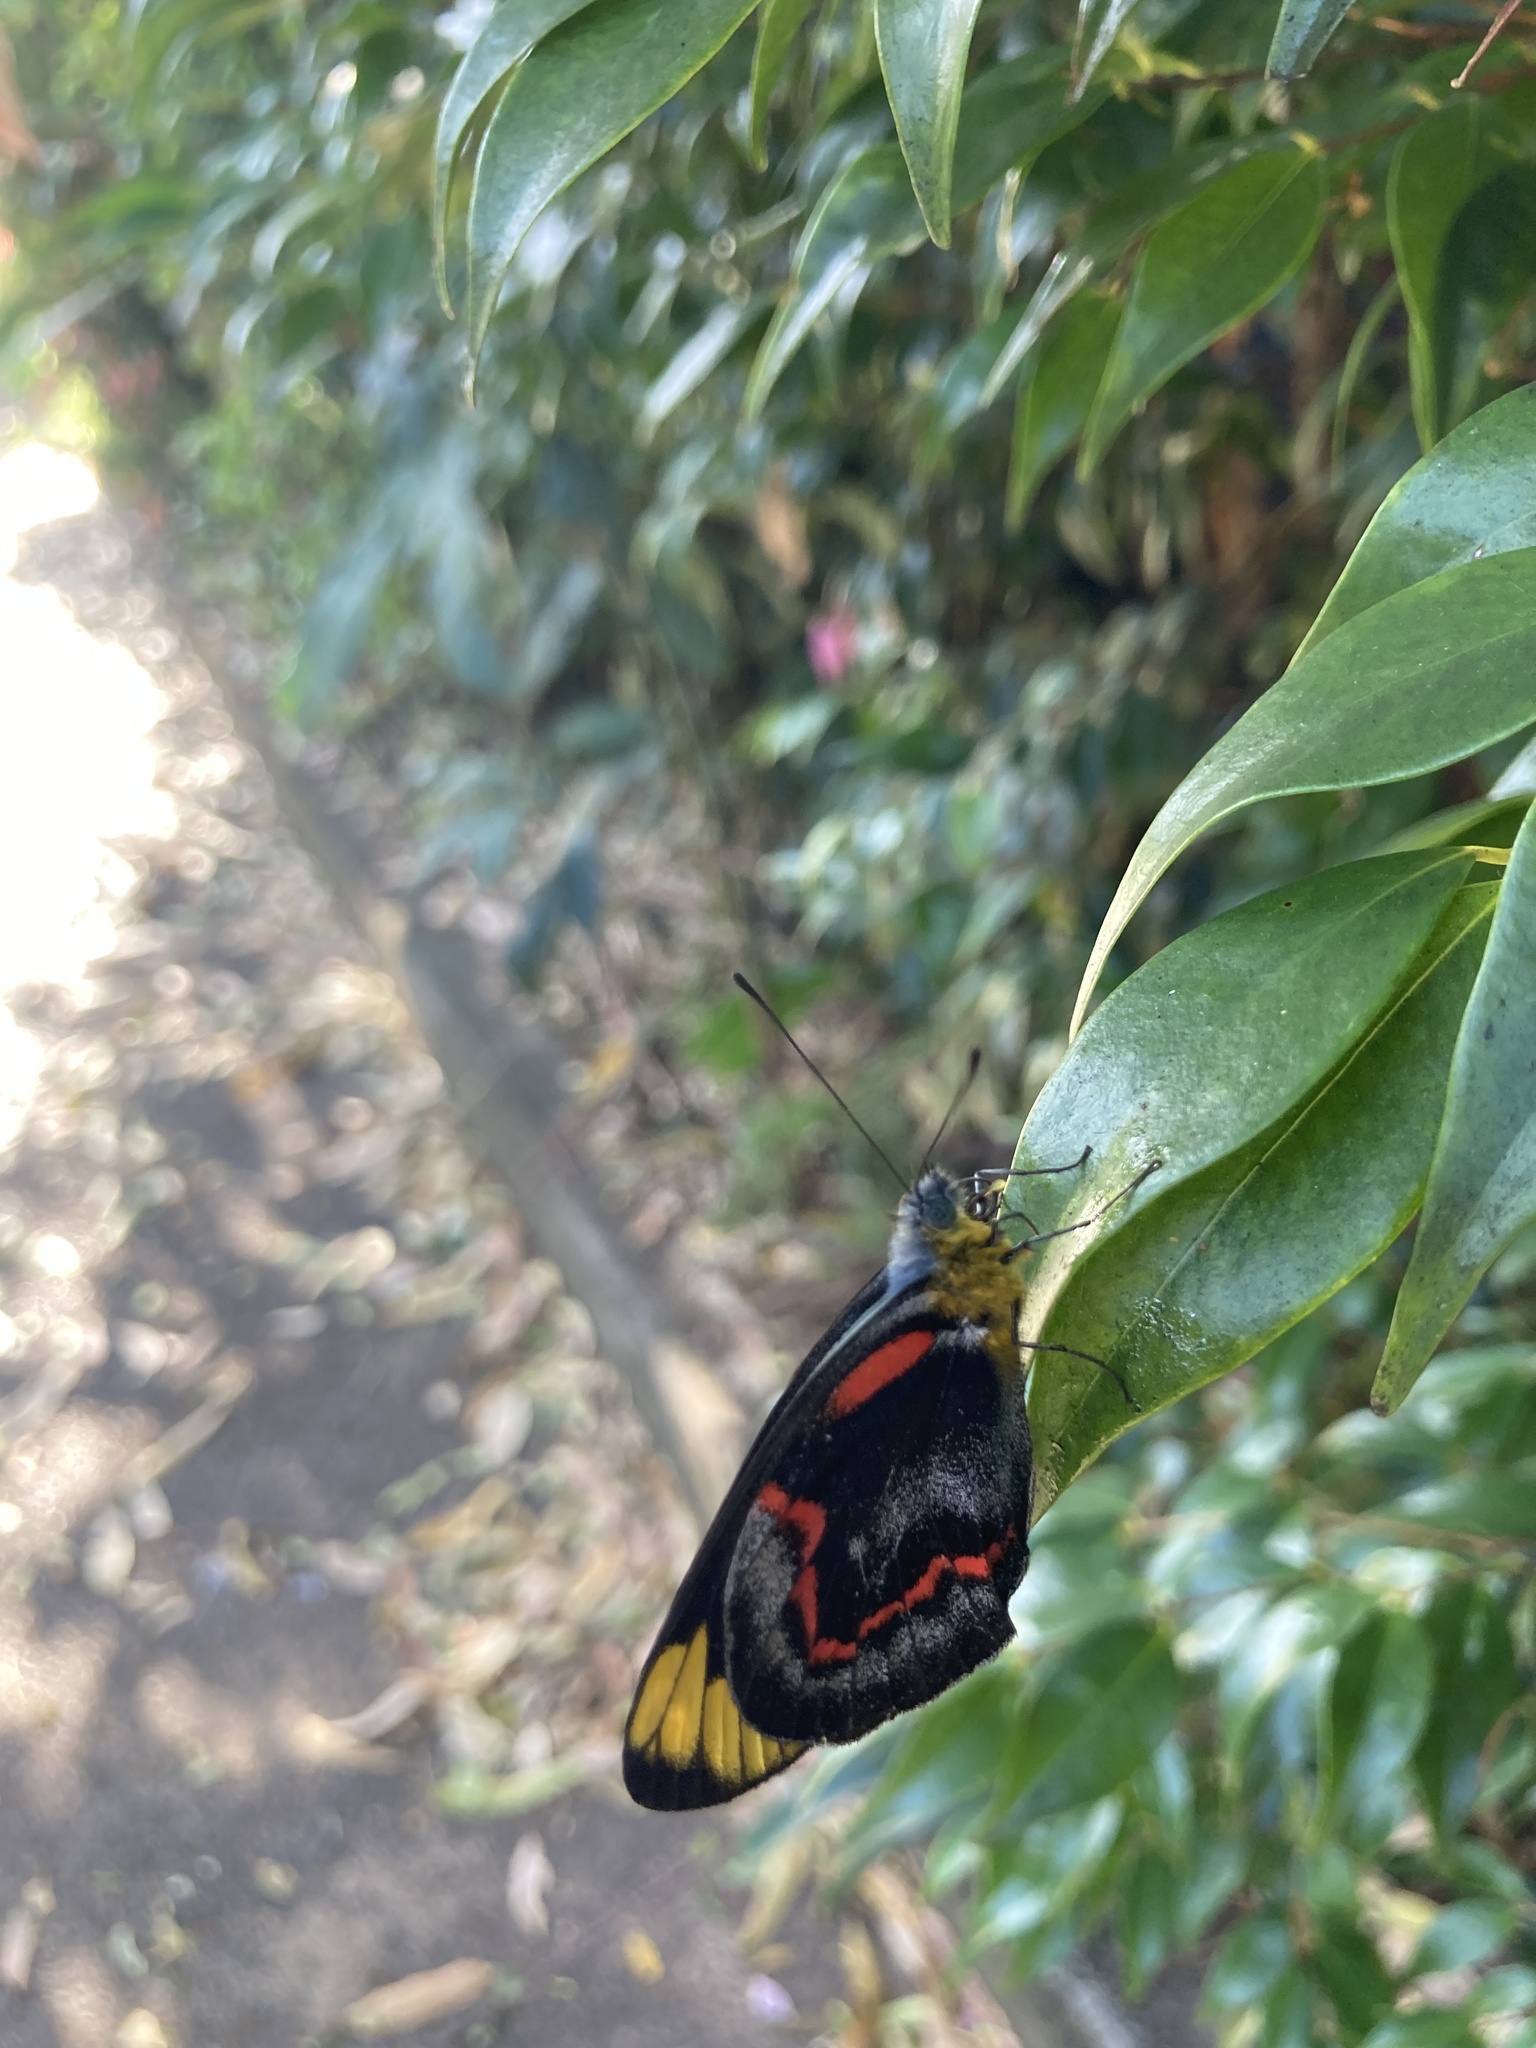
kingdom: Animalia
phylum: Arthropoda
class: Insecta
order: Lepidoptera
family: Pieridae
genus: Delias
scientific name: Delias nigrina
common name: Black jezebel
